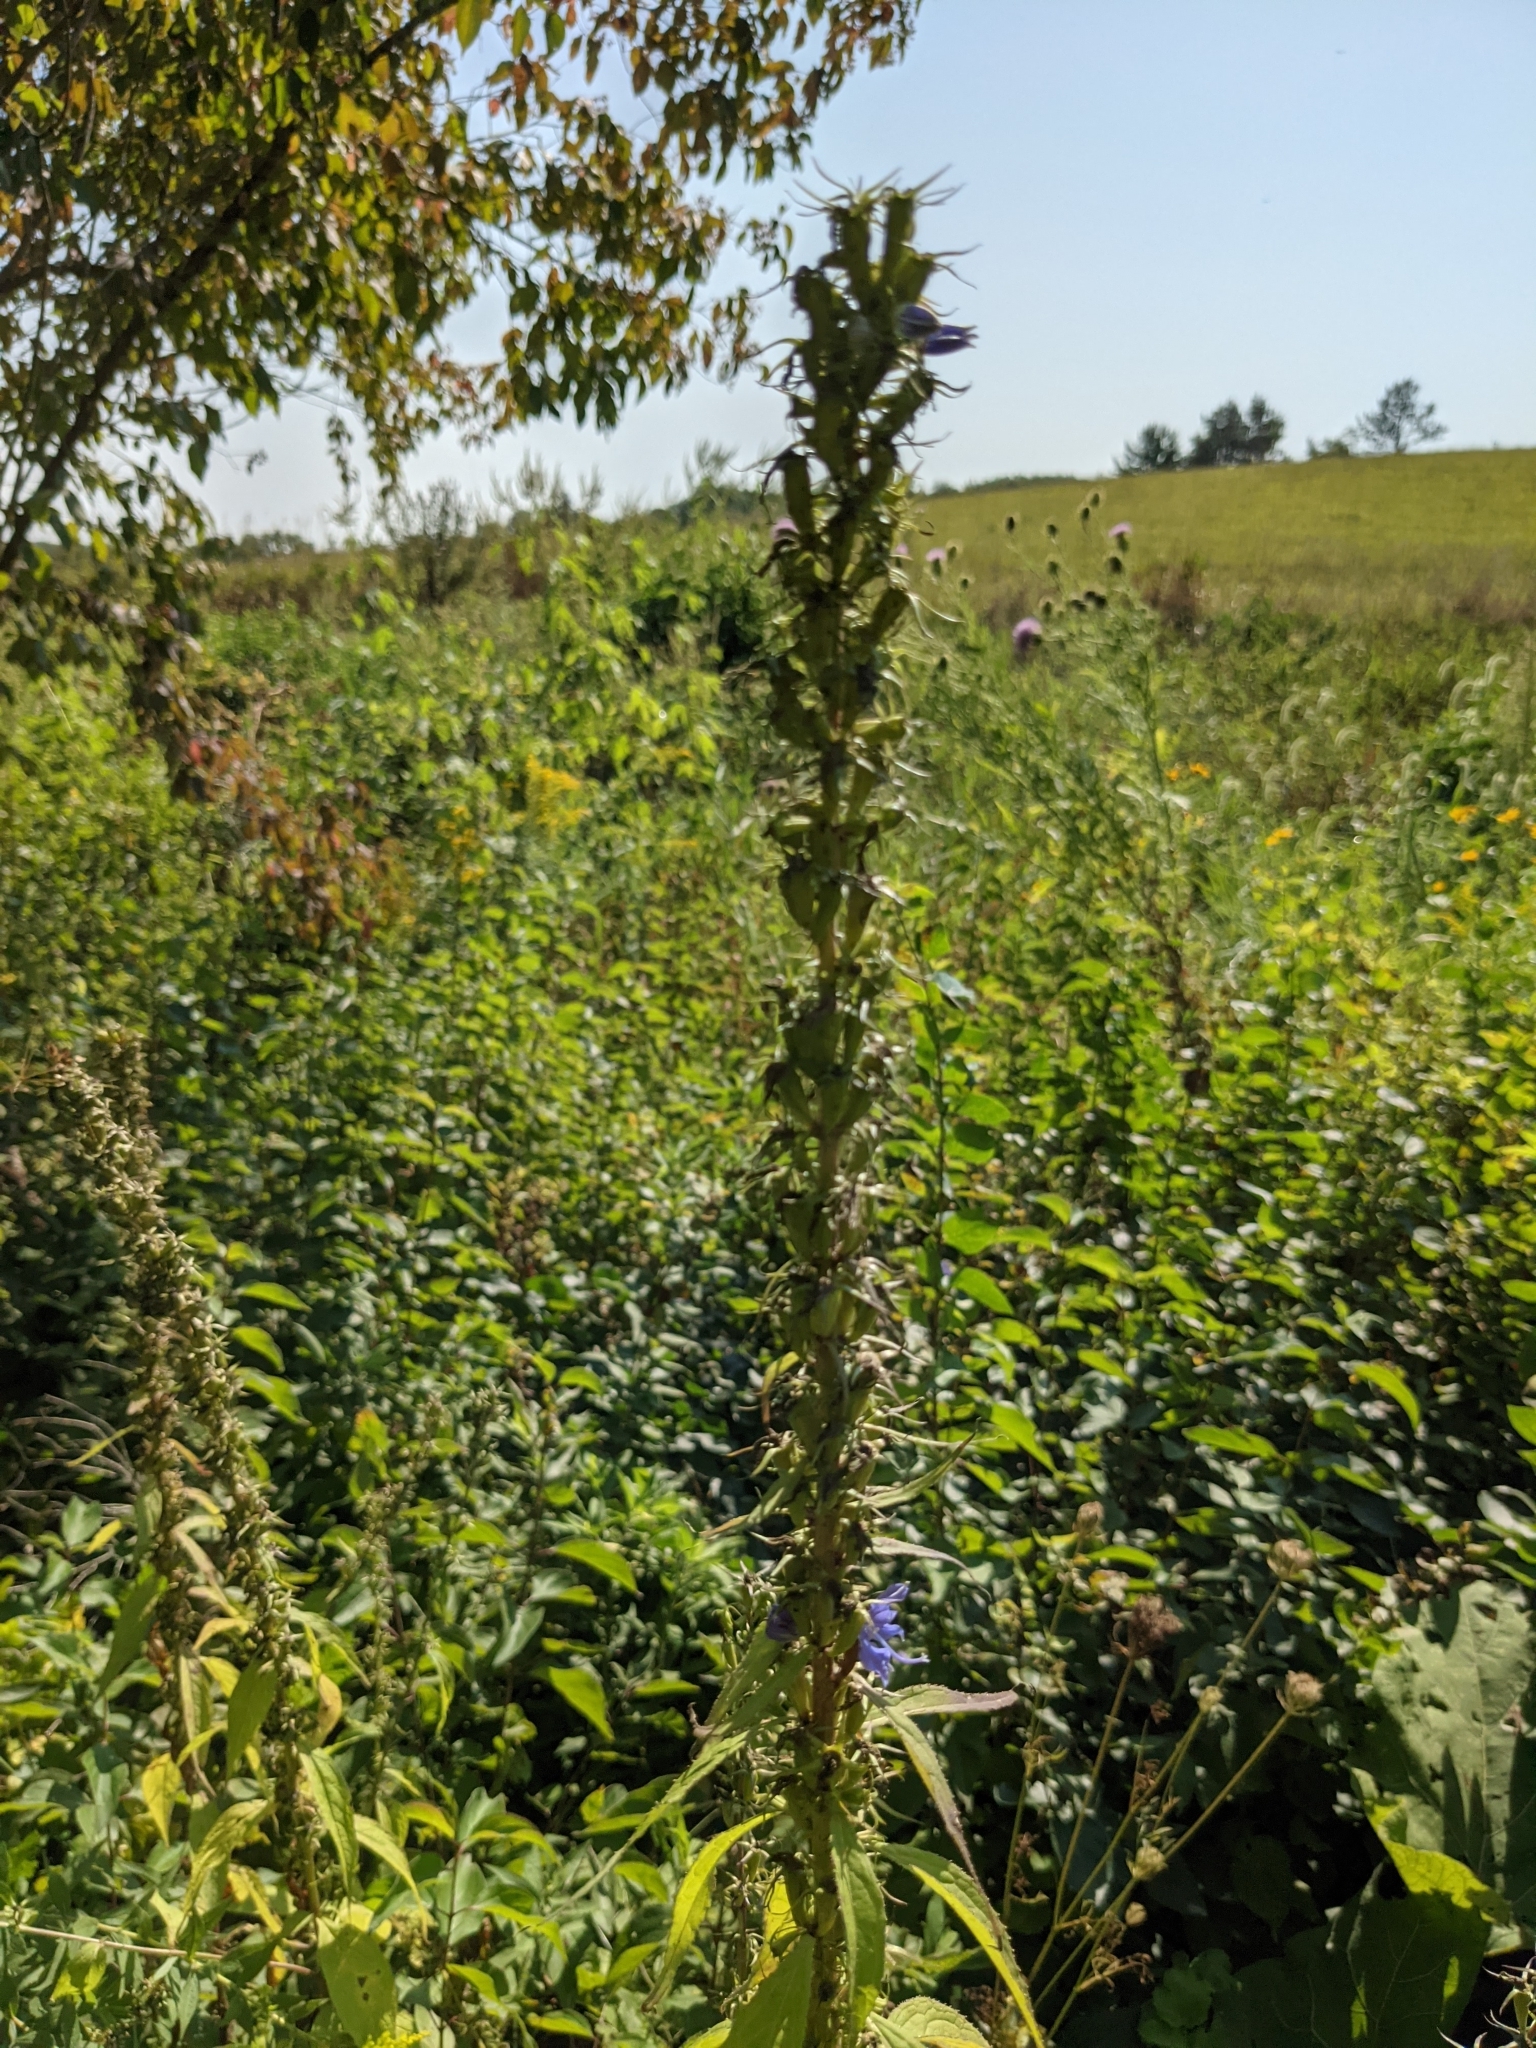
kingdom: Plantae
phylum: Tracheophyta
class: Magnoliopsida
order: Asterales
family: Campanulaceae
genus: Campanulastrum
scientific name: Campanulastrum americanum
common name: American bellflower
